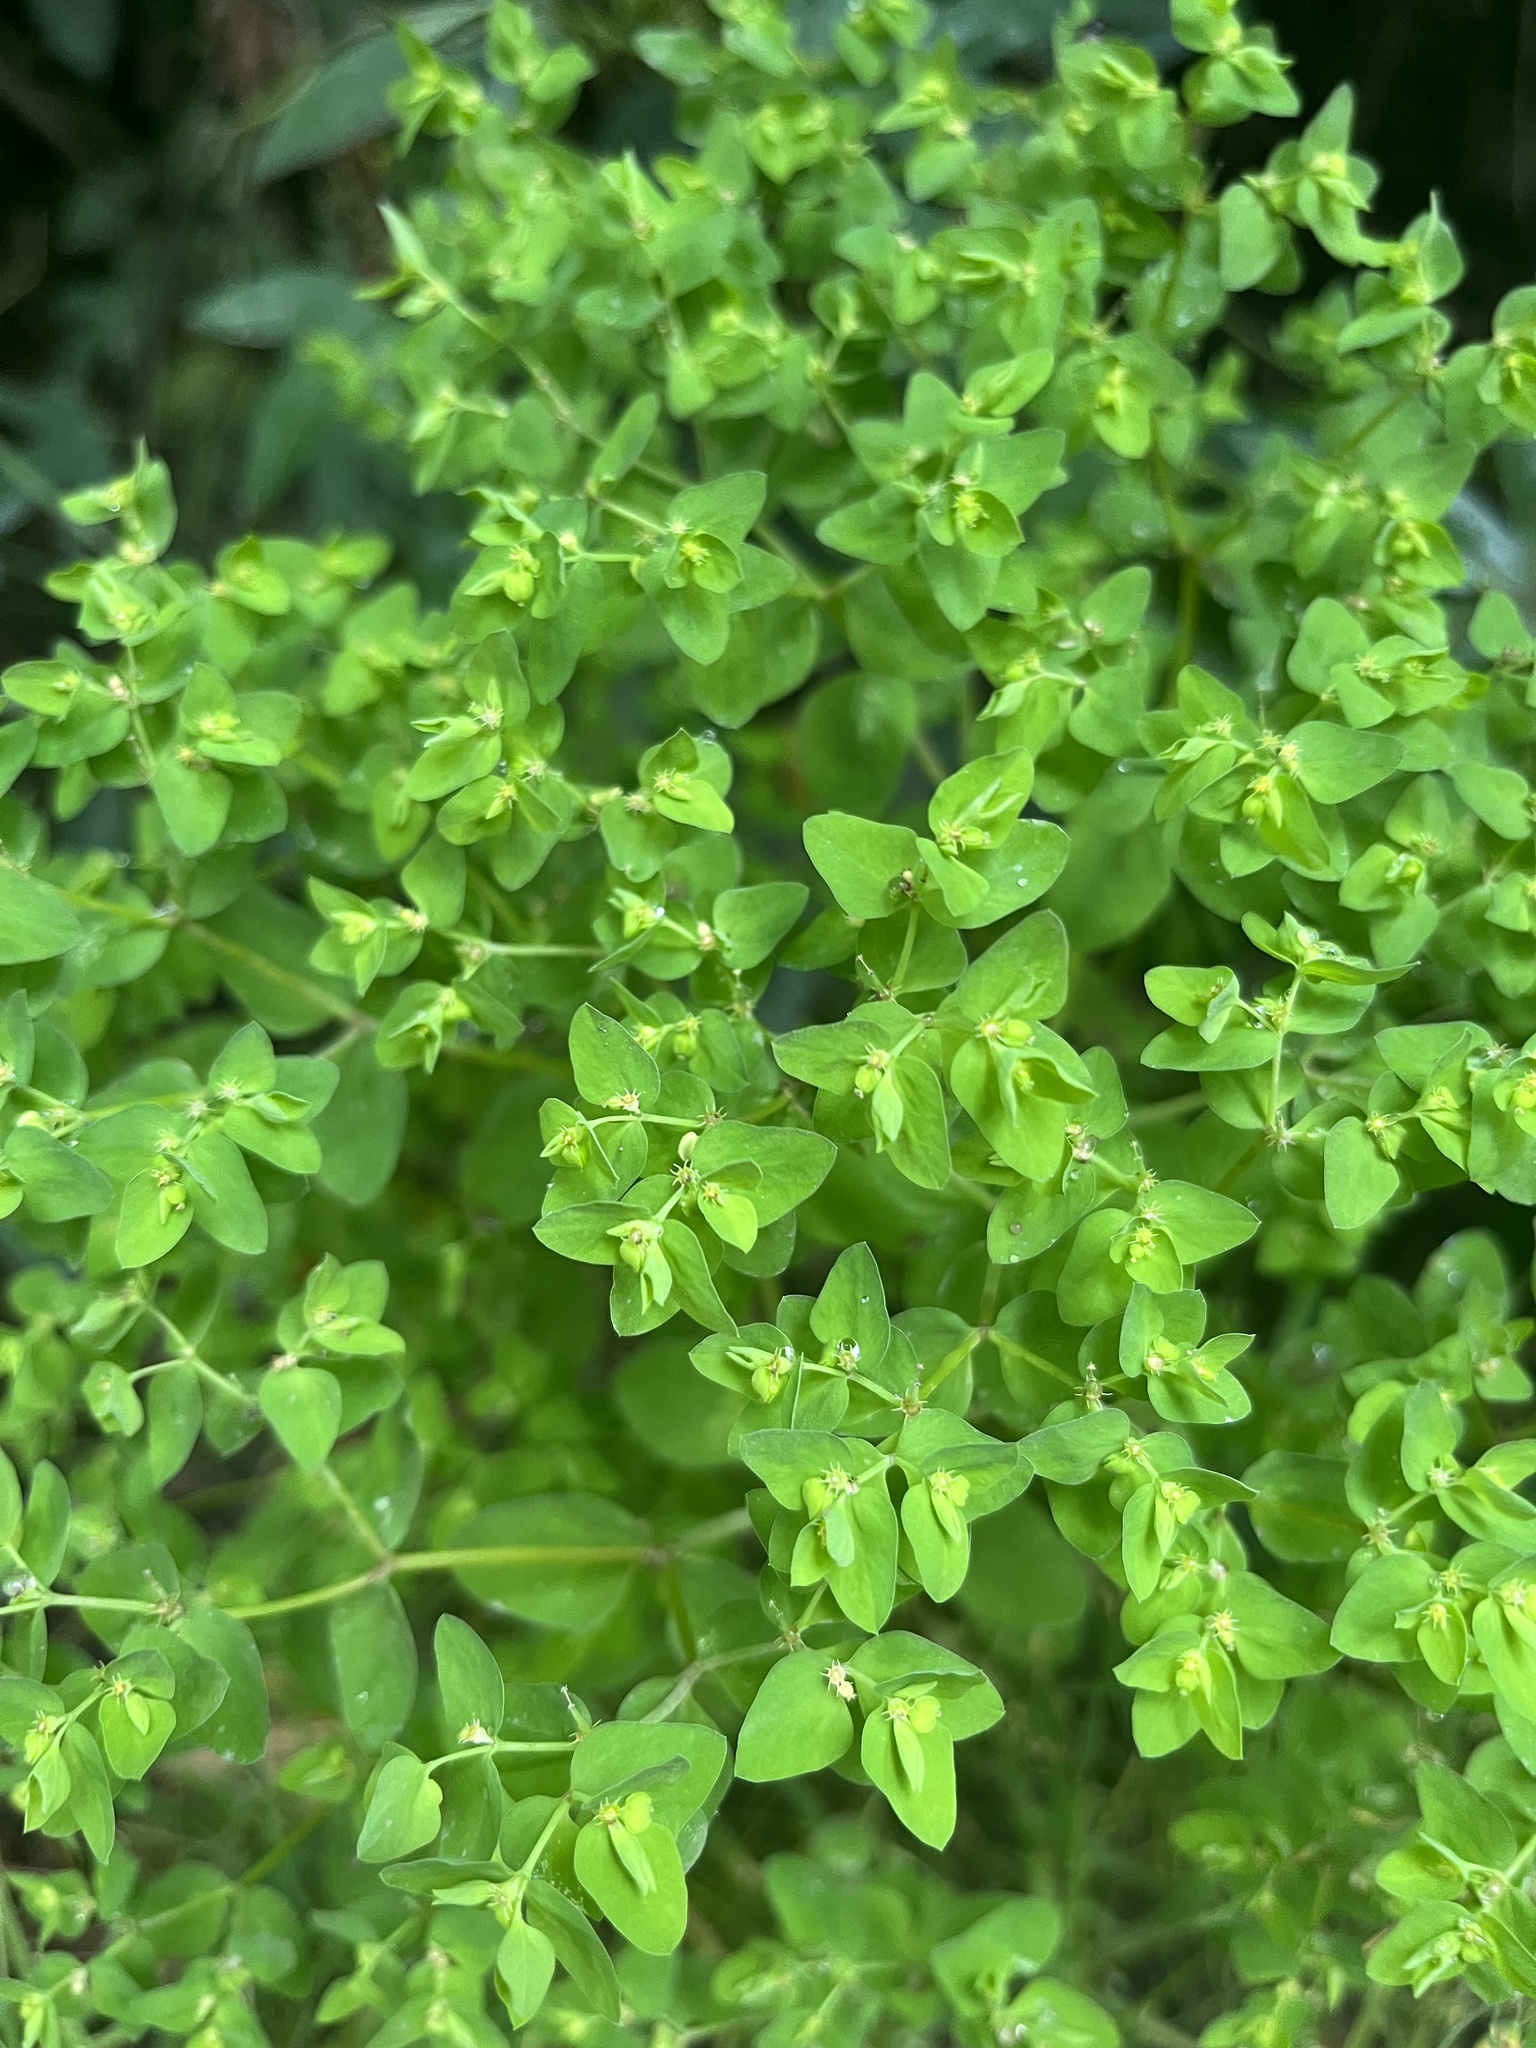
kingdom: Plantae
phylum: Tracheophyta
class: Magnoliopsida
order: Malpighiales
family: Euphorbiaceae
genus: Euphorbia
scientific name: Euphorbia peplus
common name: Petty spurge
